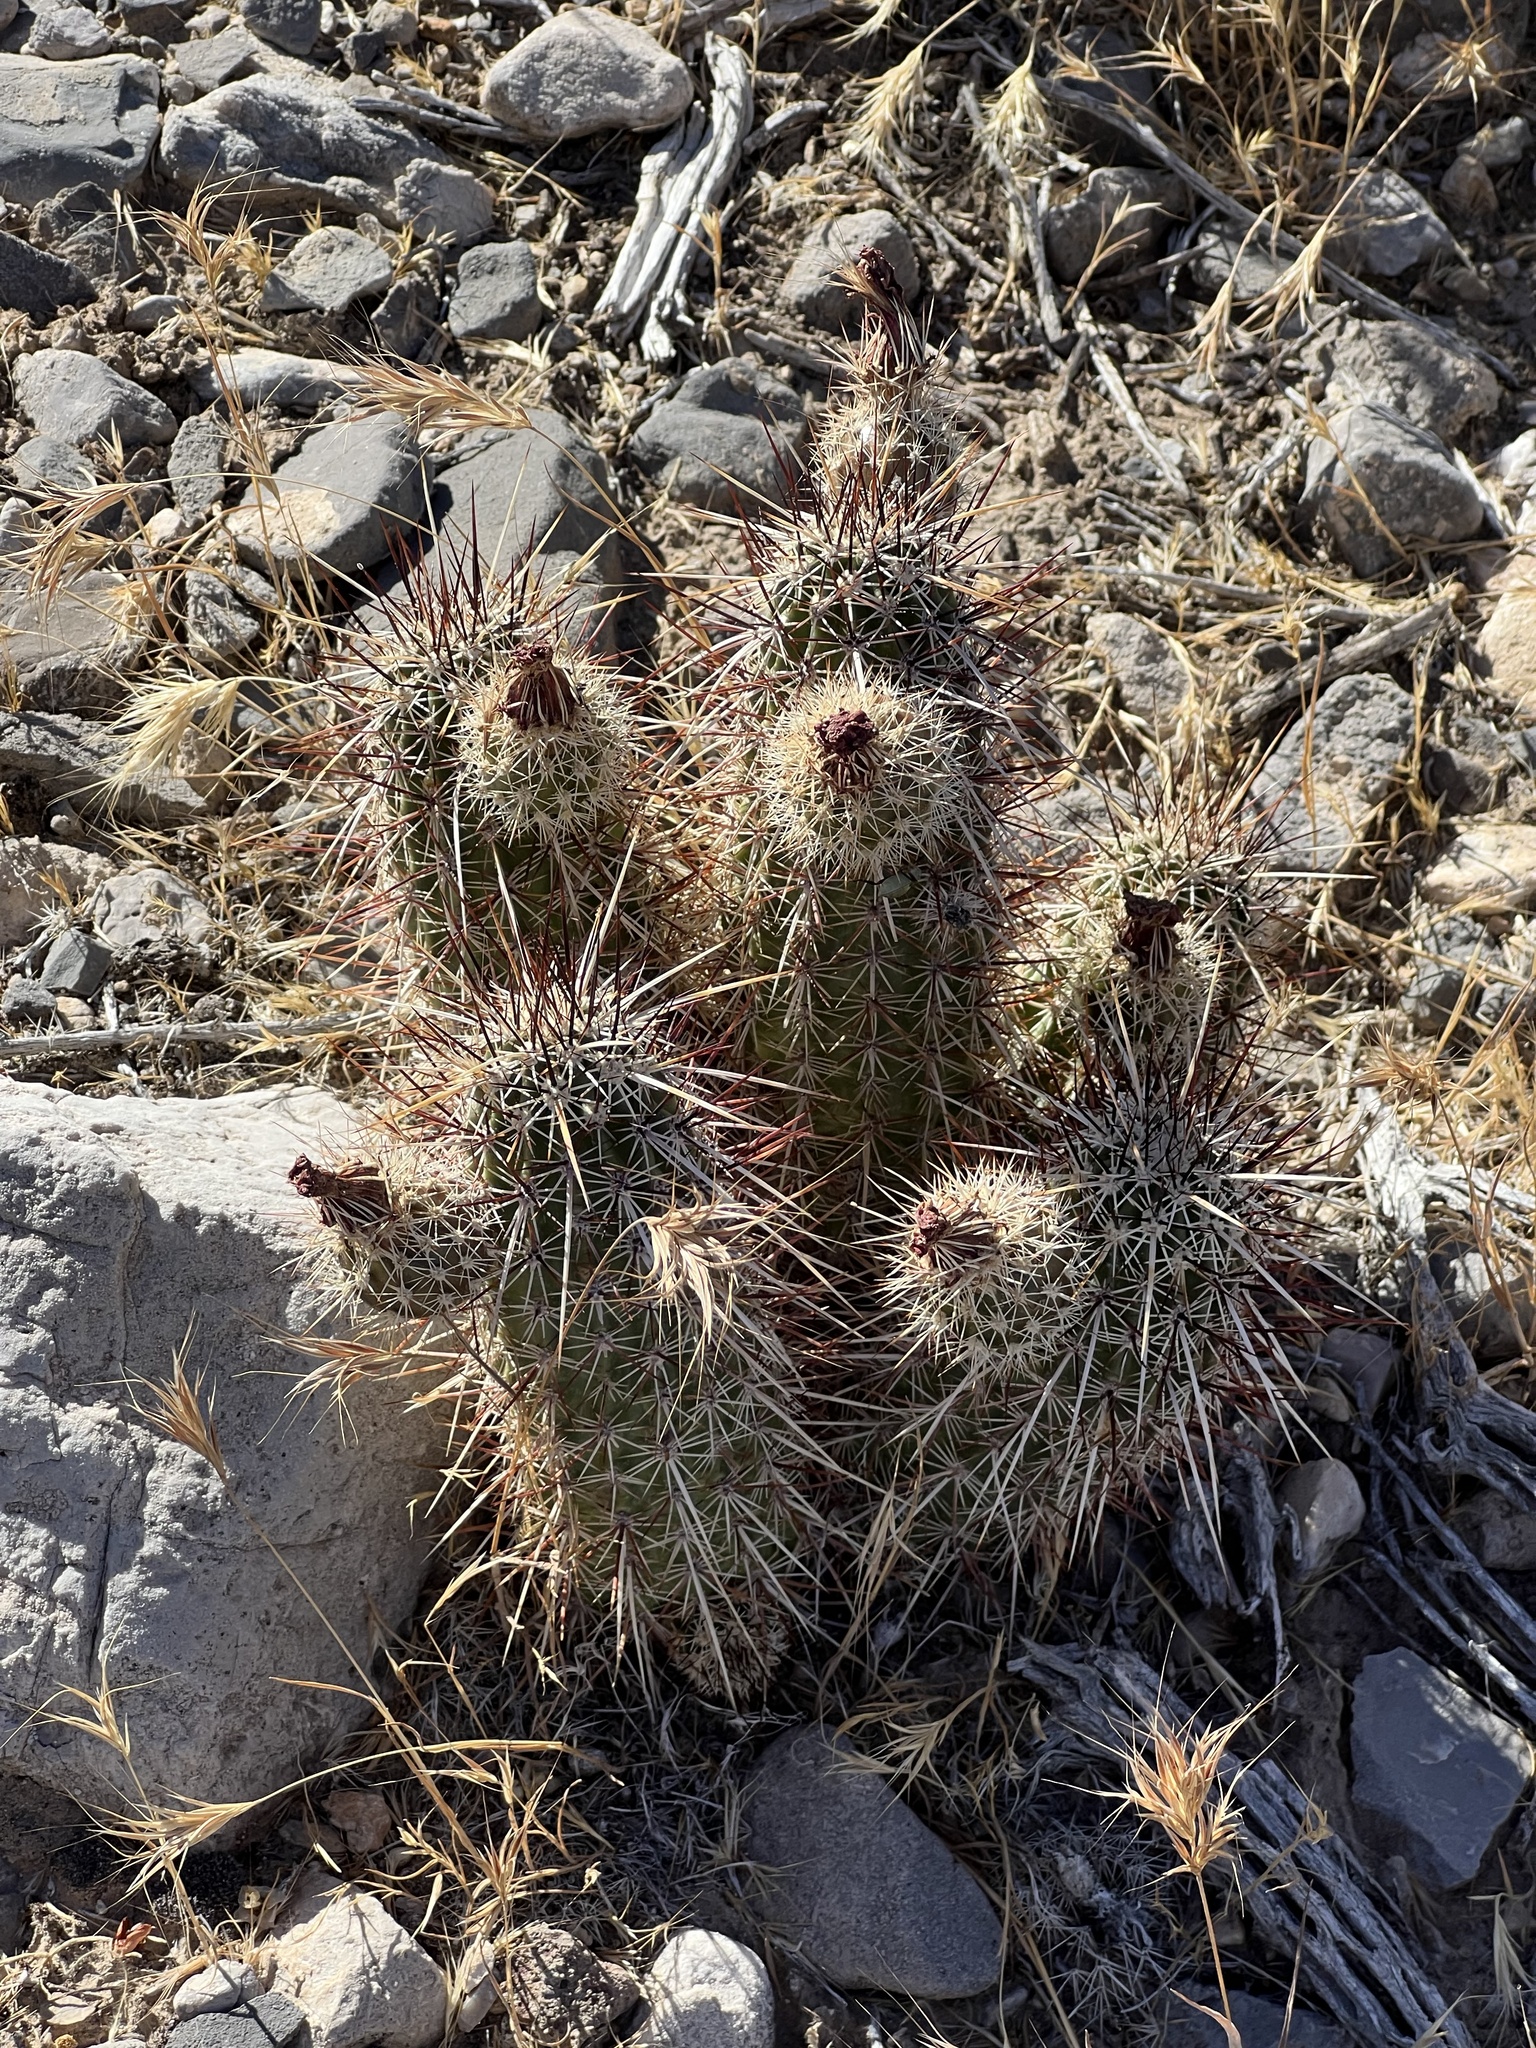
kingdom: Plantae
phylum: Tracheophyta
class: Magnoliopsida
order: Caryophyllales
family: Cactaceae
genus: Echinocereus
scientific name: Echinocereus engelmannii
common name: Engelmann's hedgehog cactus
